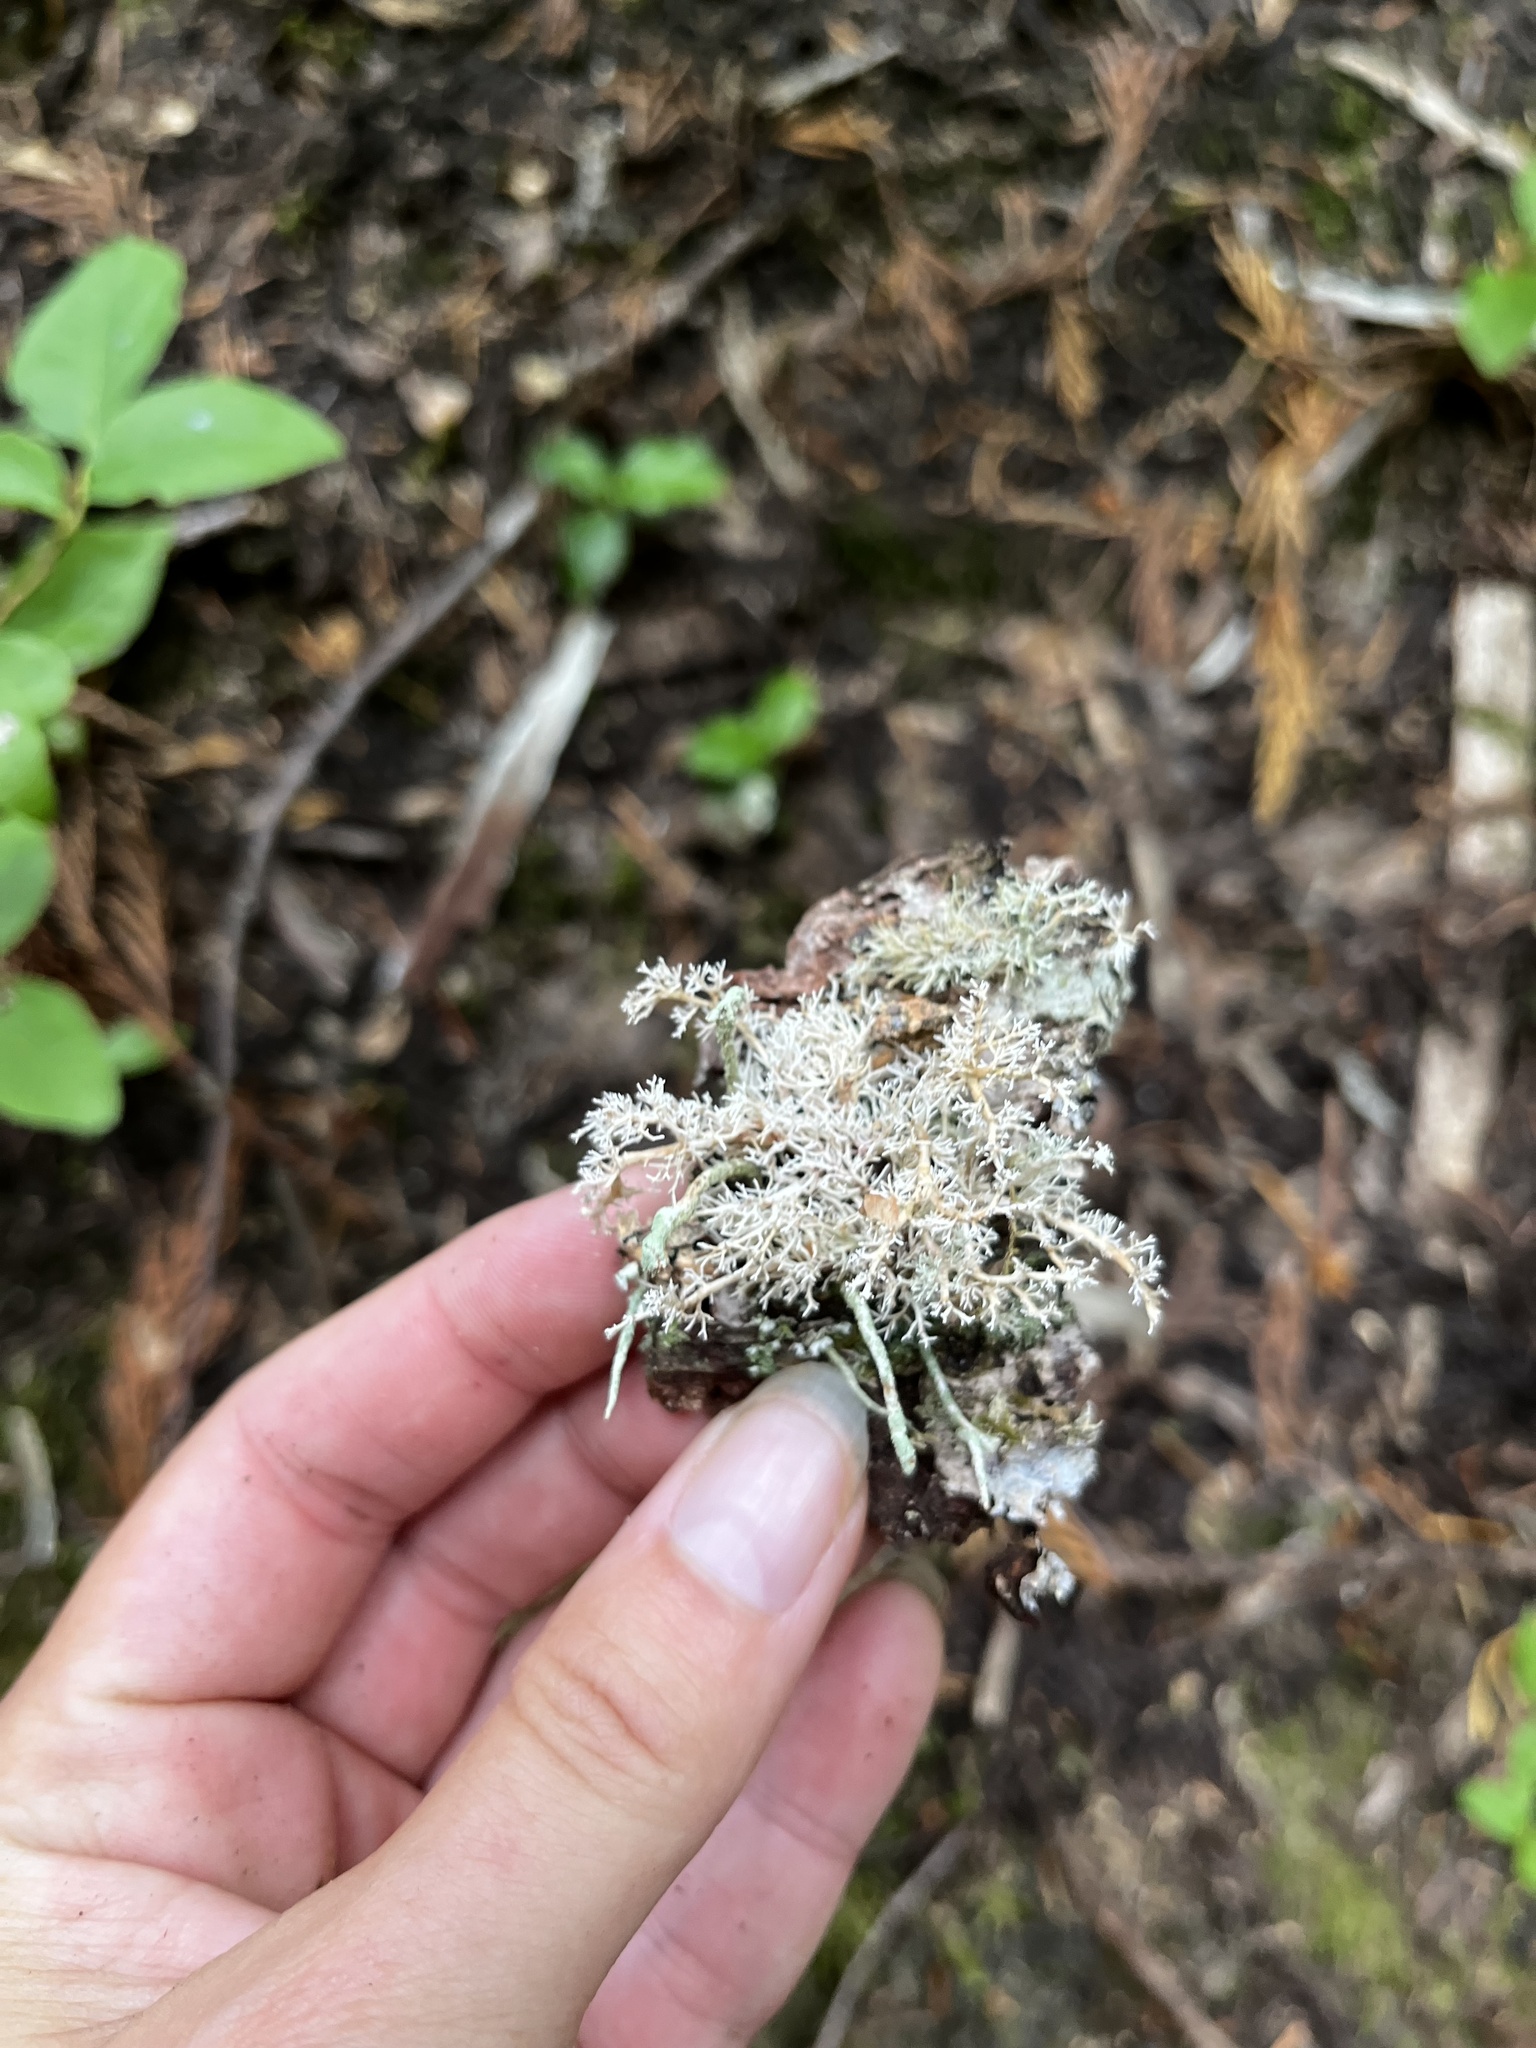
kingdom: Fungi
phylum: Ascomycota
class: Lecanoromycetes
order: Lecanorales
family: Sphaerophoraceae
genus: Sphaerophorus
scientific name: Sphaerophorus globosus
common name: Globe ball lichen
